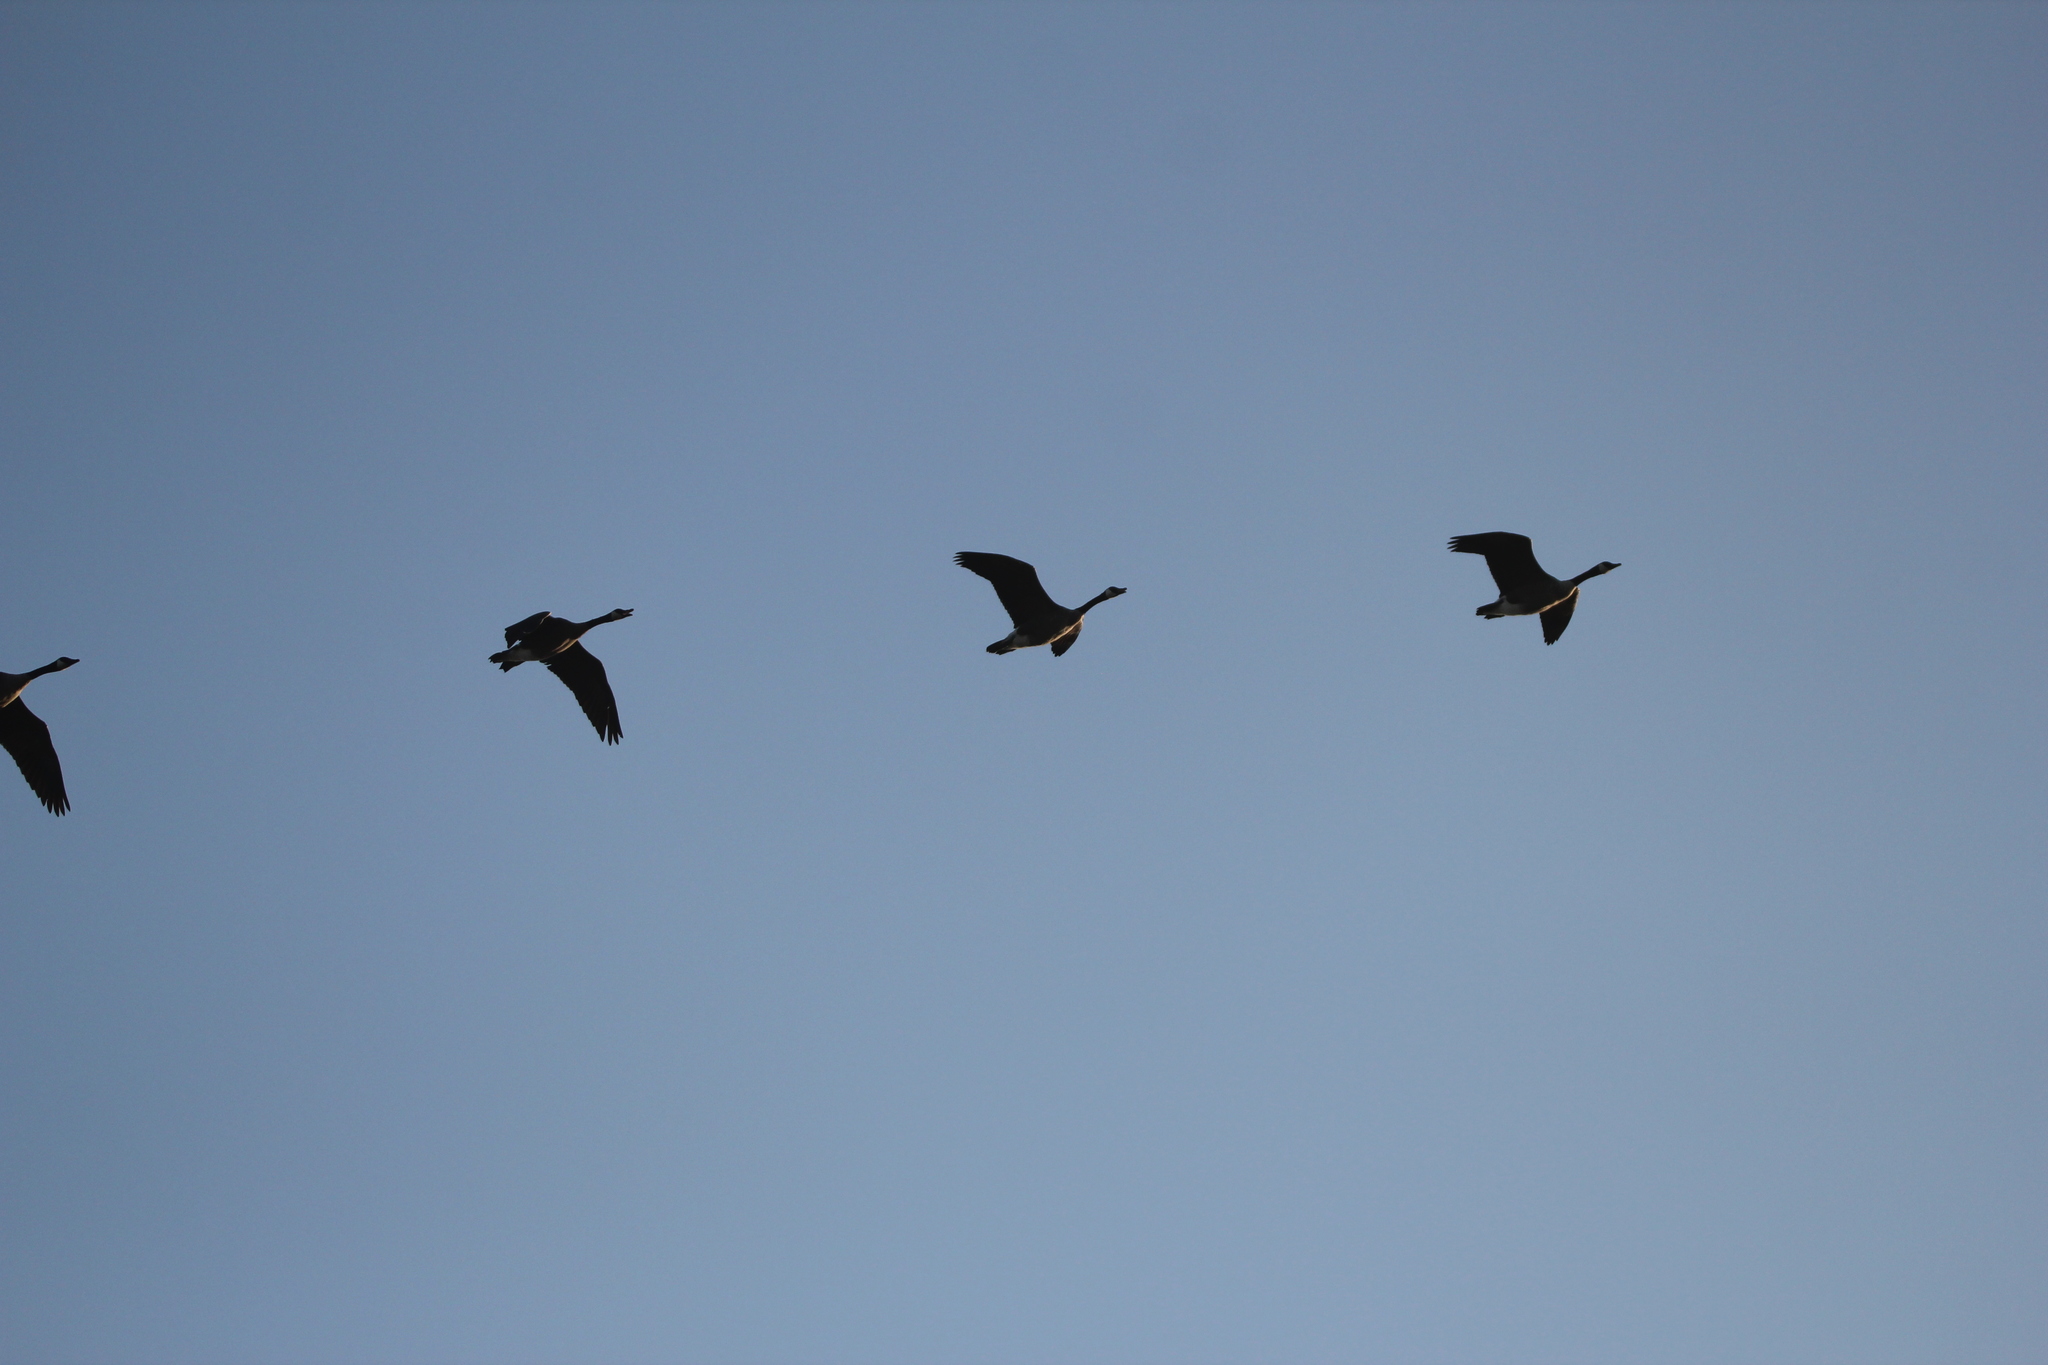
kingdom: Animalia
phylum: Chordata
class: Aves
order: Anseriformes
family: Anatidae
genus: Branta
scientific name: Branta canadensis
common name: Canada goose
